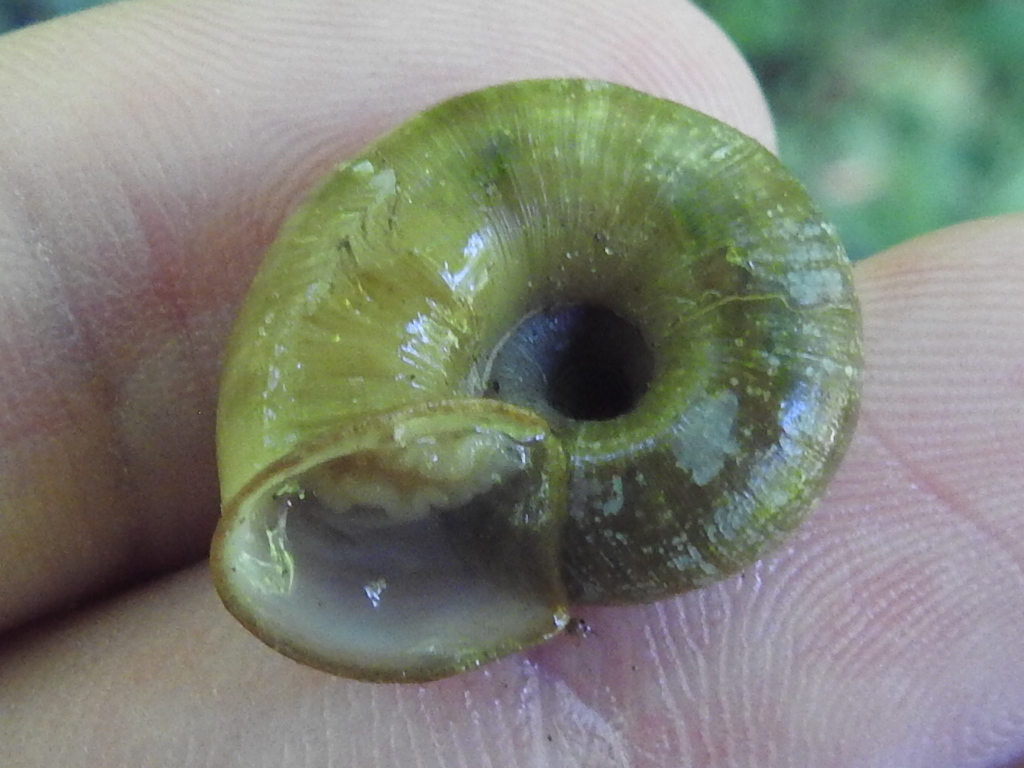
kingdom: Animalia
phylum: Mollusca
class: Gastropoda
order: Stylommatophora
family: Haplotrematidae
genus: Ancotrema
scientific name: Ancotrema sportella
